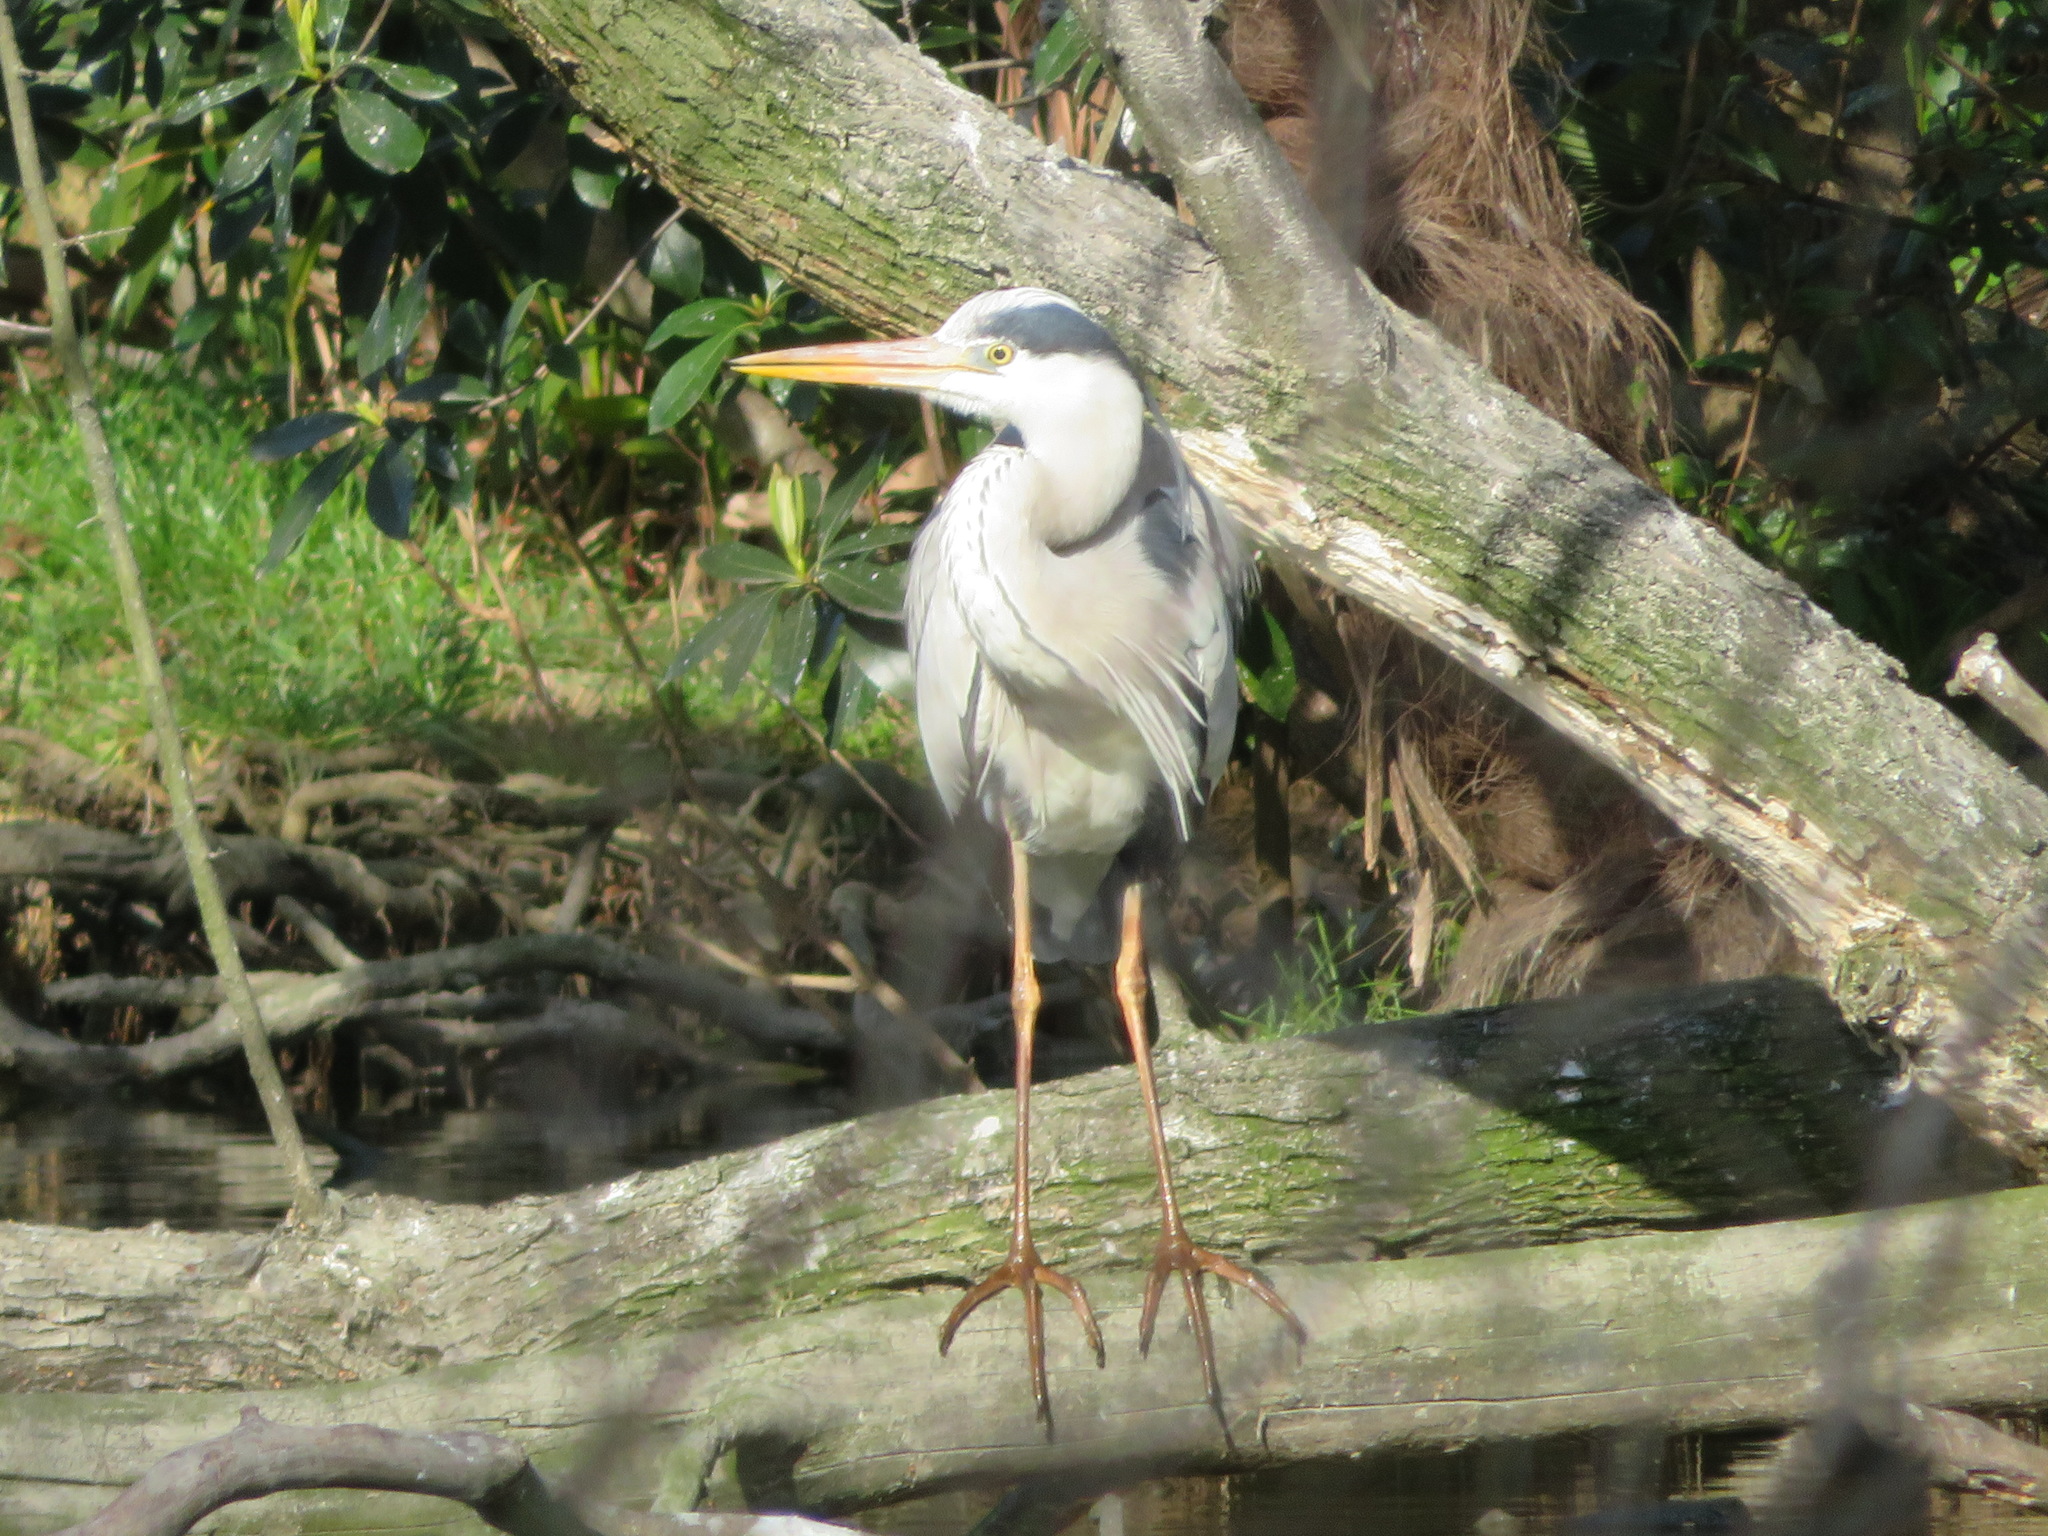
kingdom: Animalia
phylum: Chordata
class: Aves
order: Pelecaniformes
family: Ardeidae
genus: Ardea
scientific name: Ardea cinerea
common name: Grey heron
